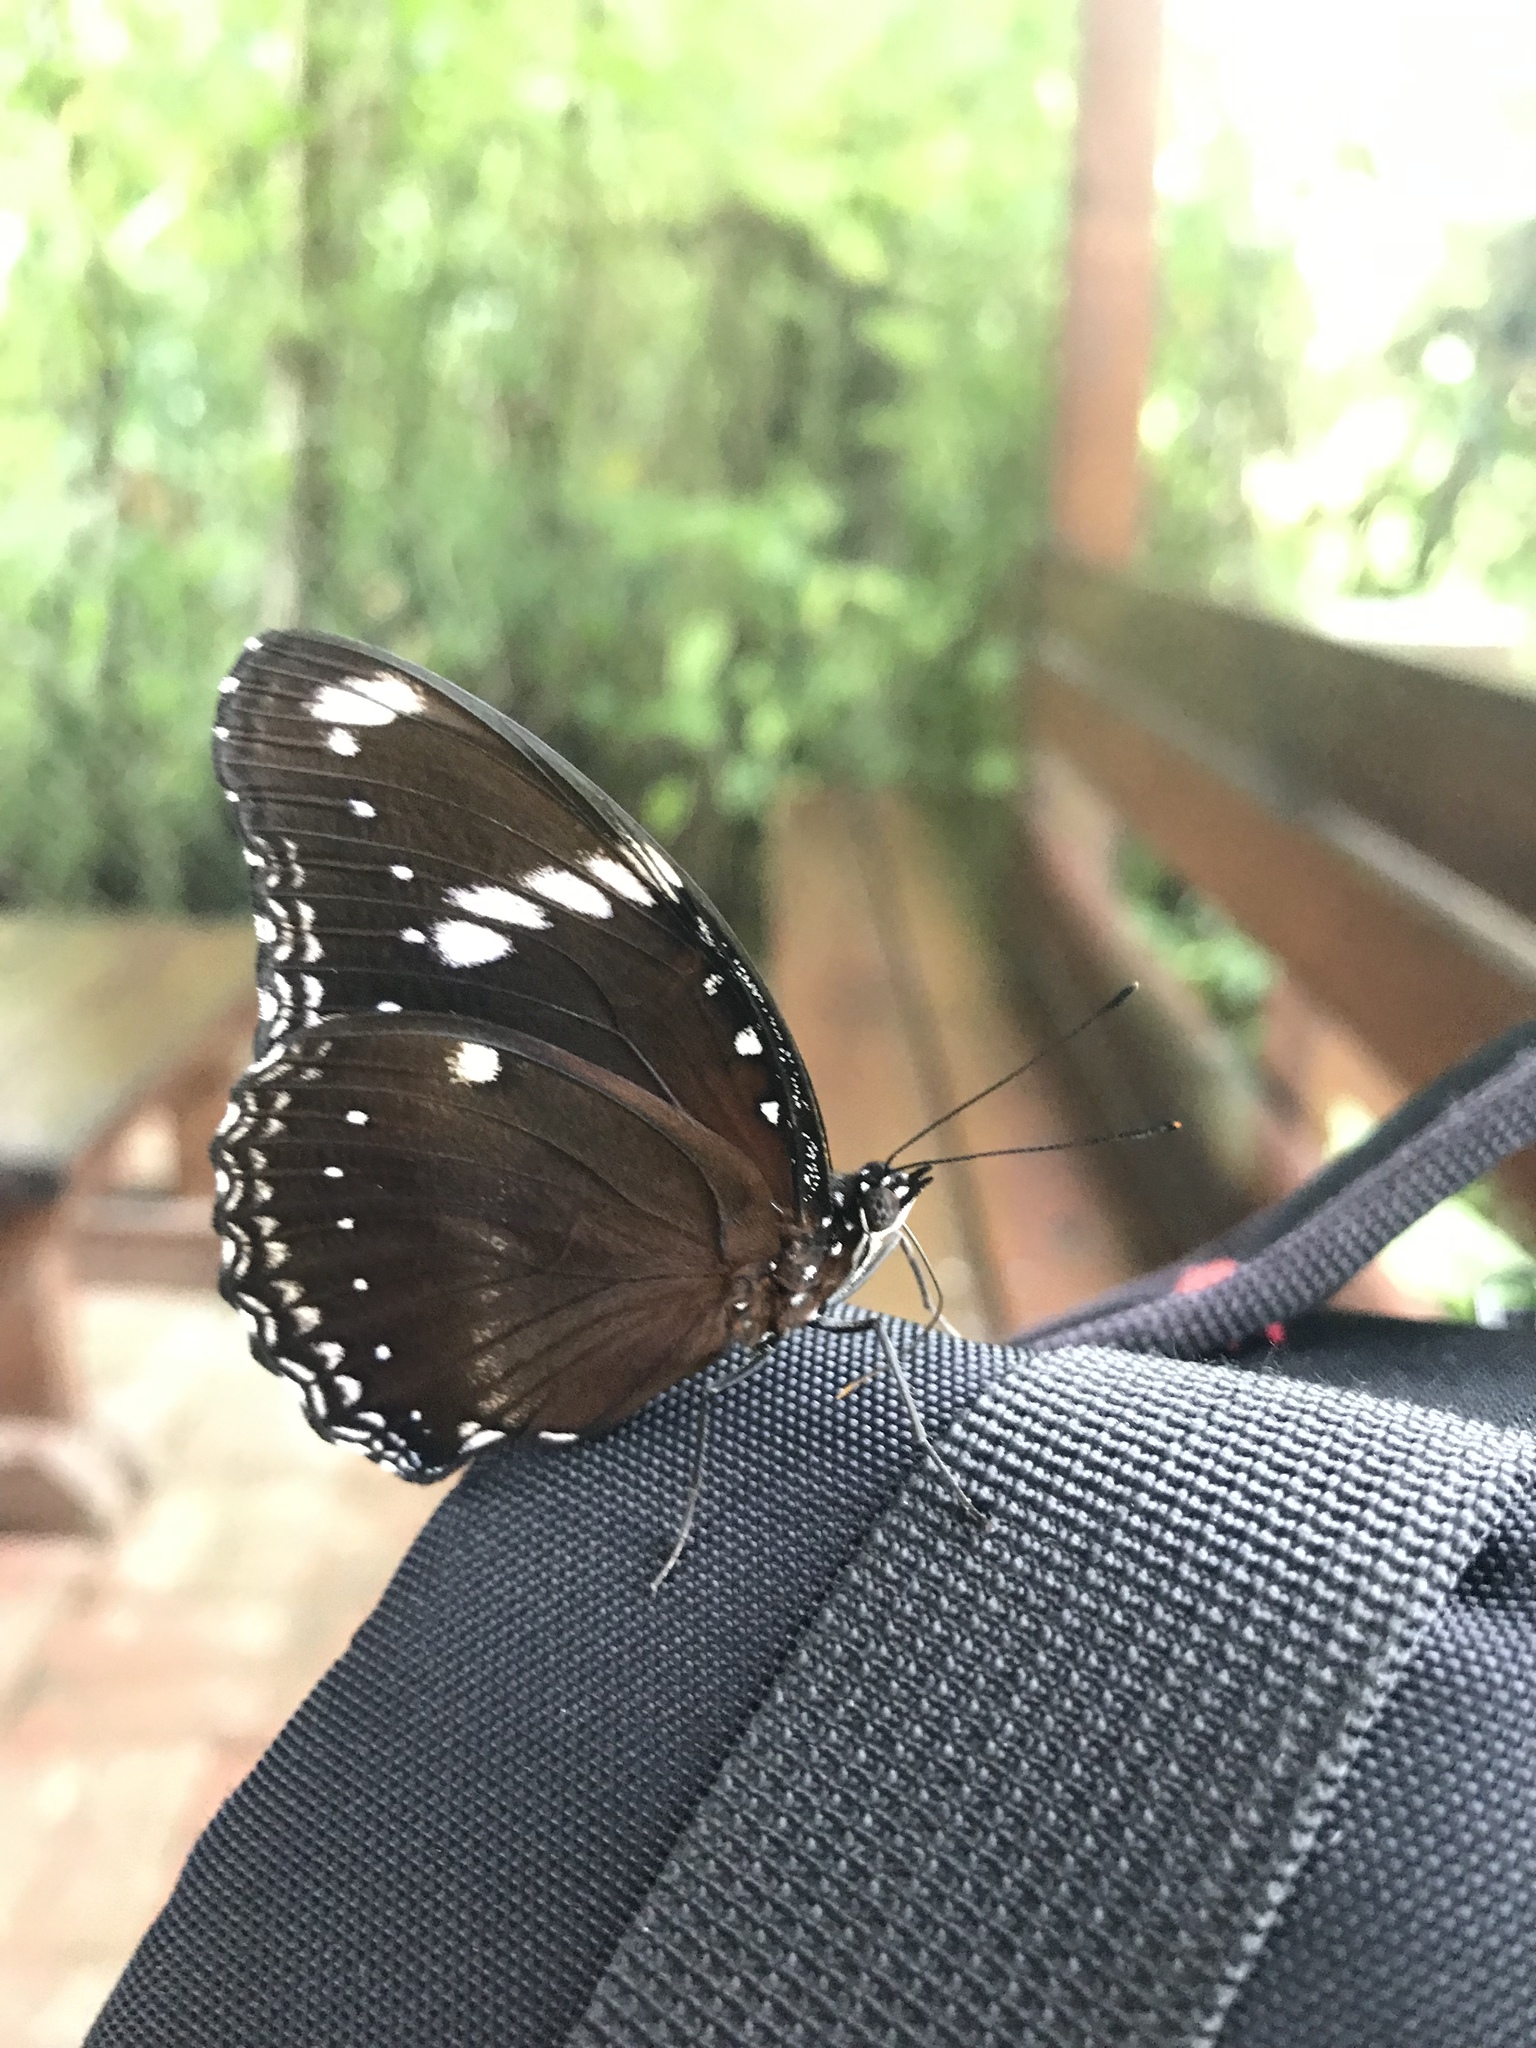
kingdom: Animalia
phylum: Arthropoda
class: Insecta
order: Lepidoptera
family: Nymphalidae
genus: Hypolimnas
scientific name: Hypolimnas bolina
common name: Great eggfly
